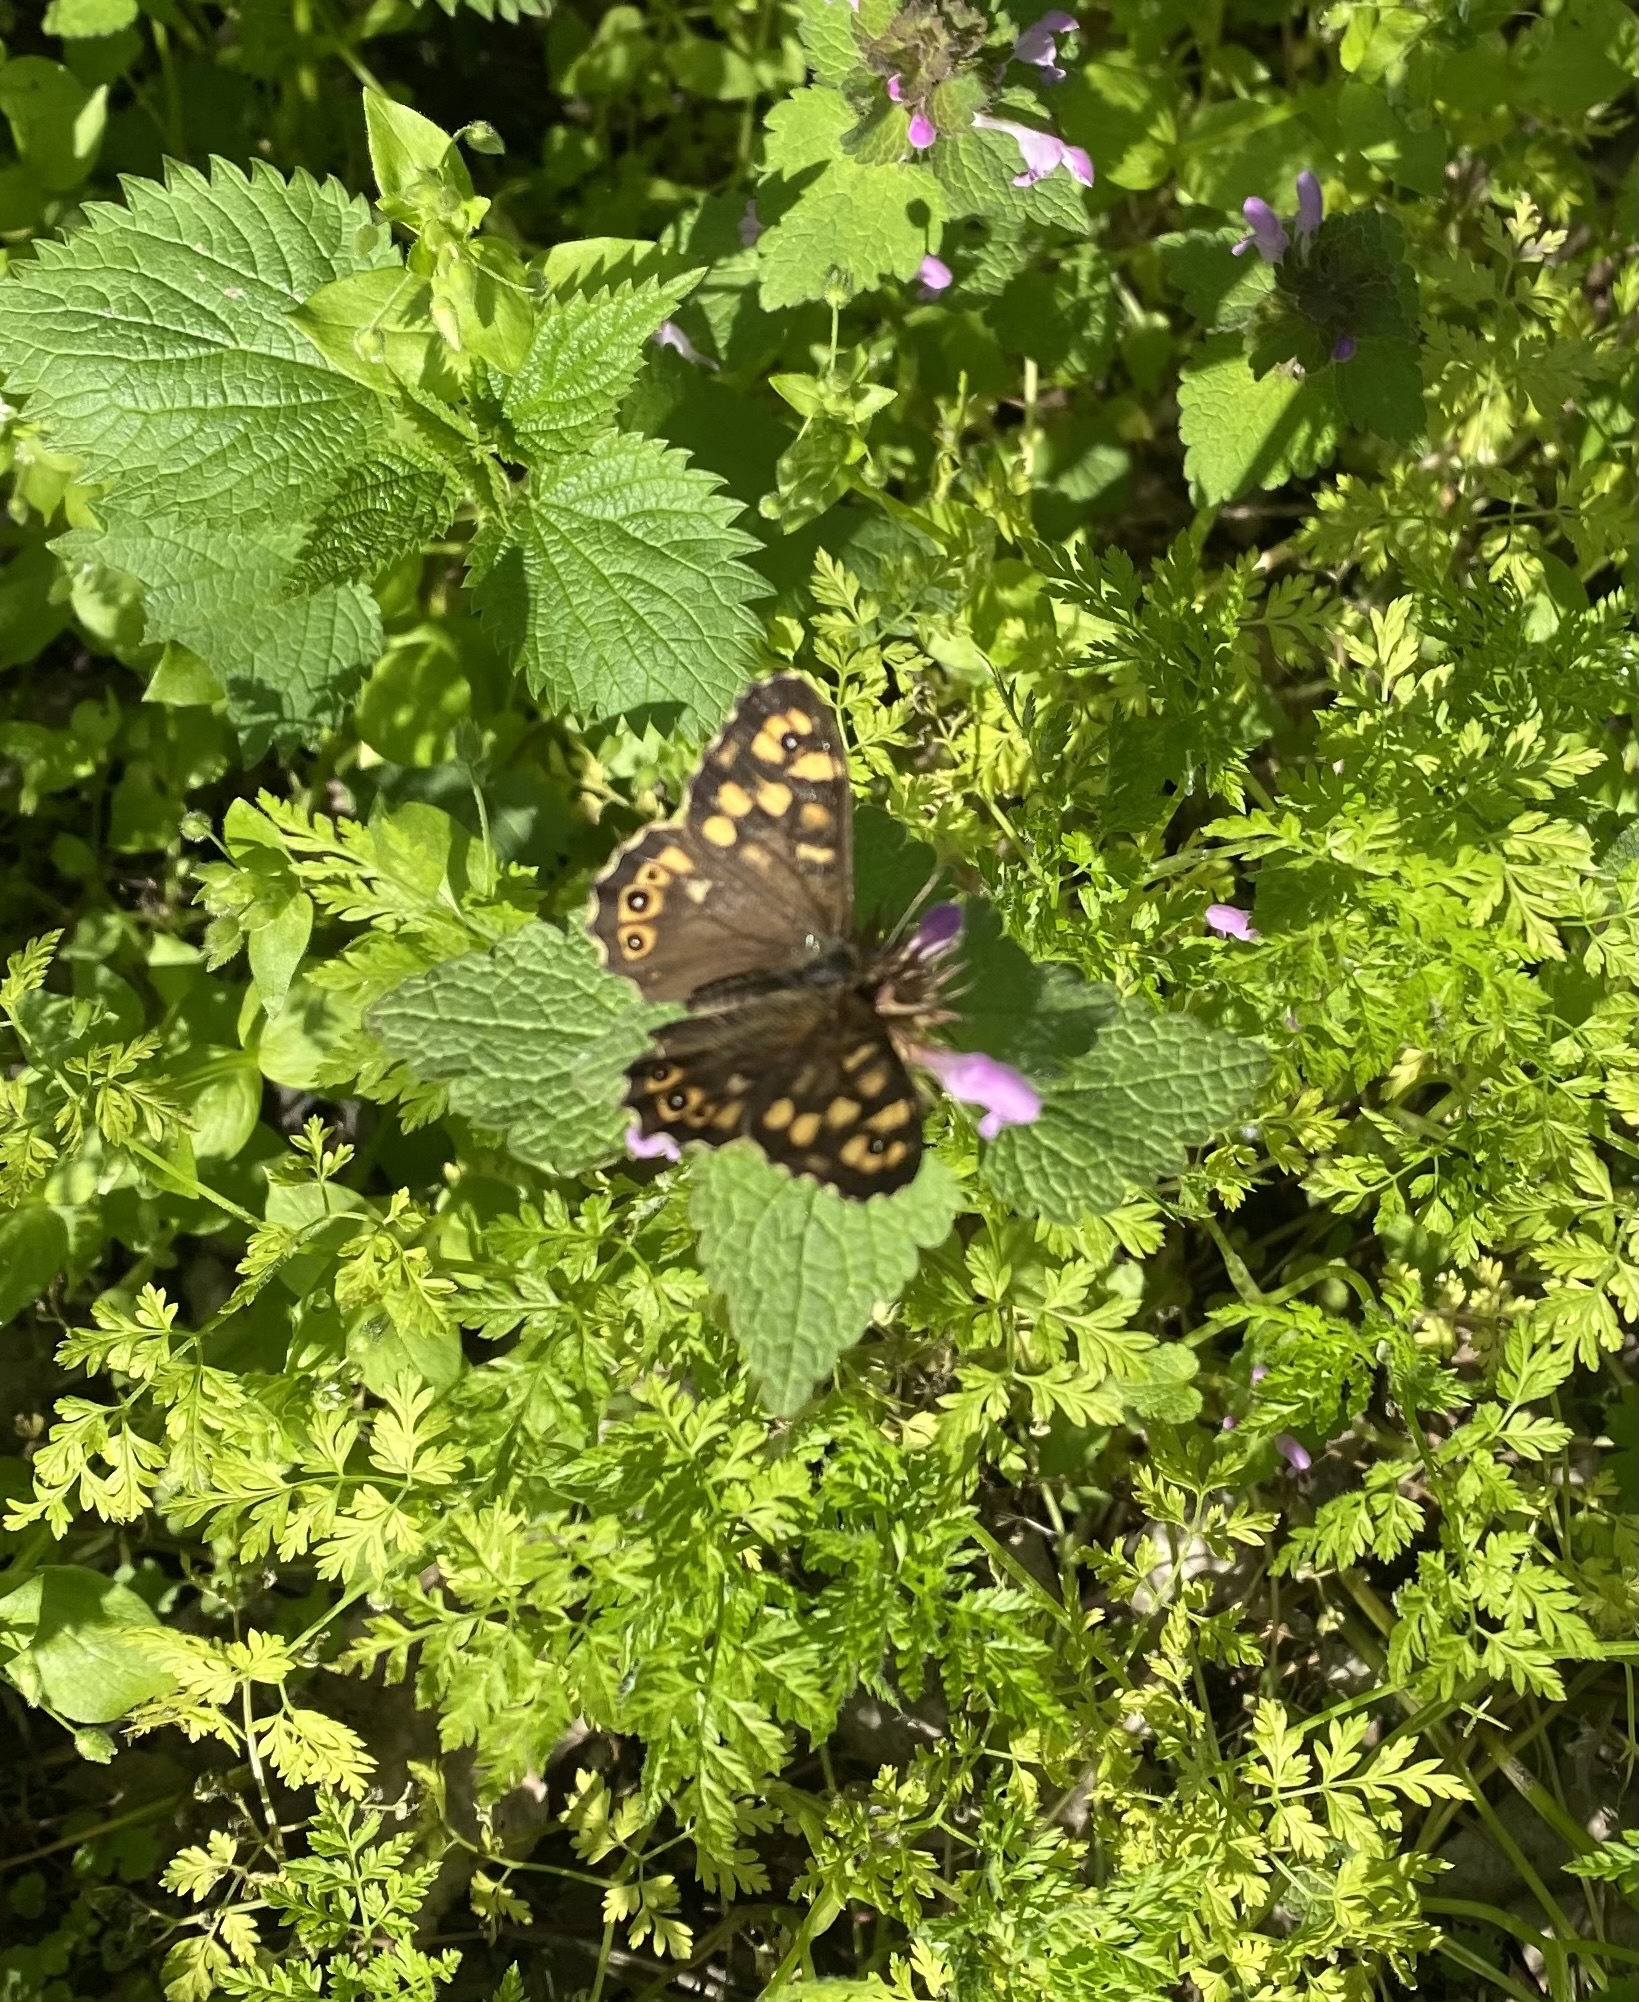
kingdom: Animalia
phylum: Arthropoda
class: Insecta
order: Lepidoptera
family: Nymphalidae
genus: Pararge
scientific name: Pararge aegeria
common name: Speckled wood
